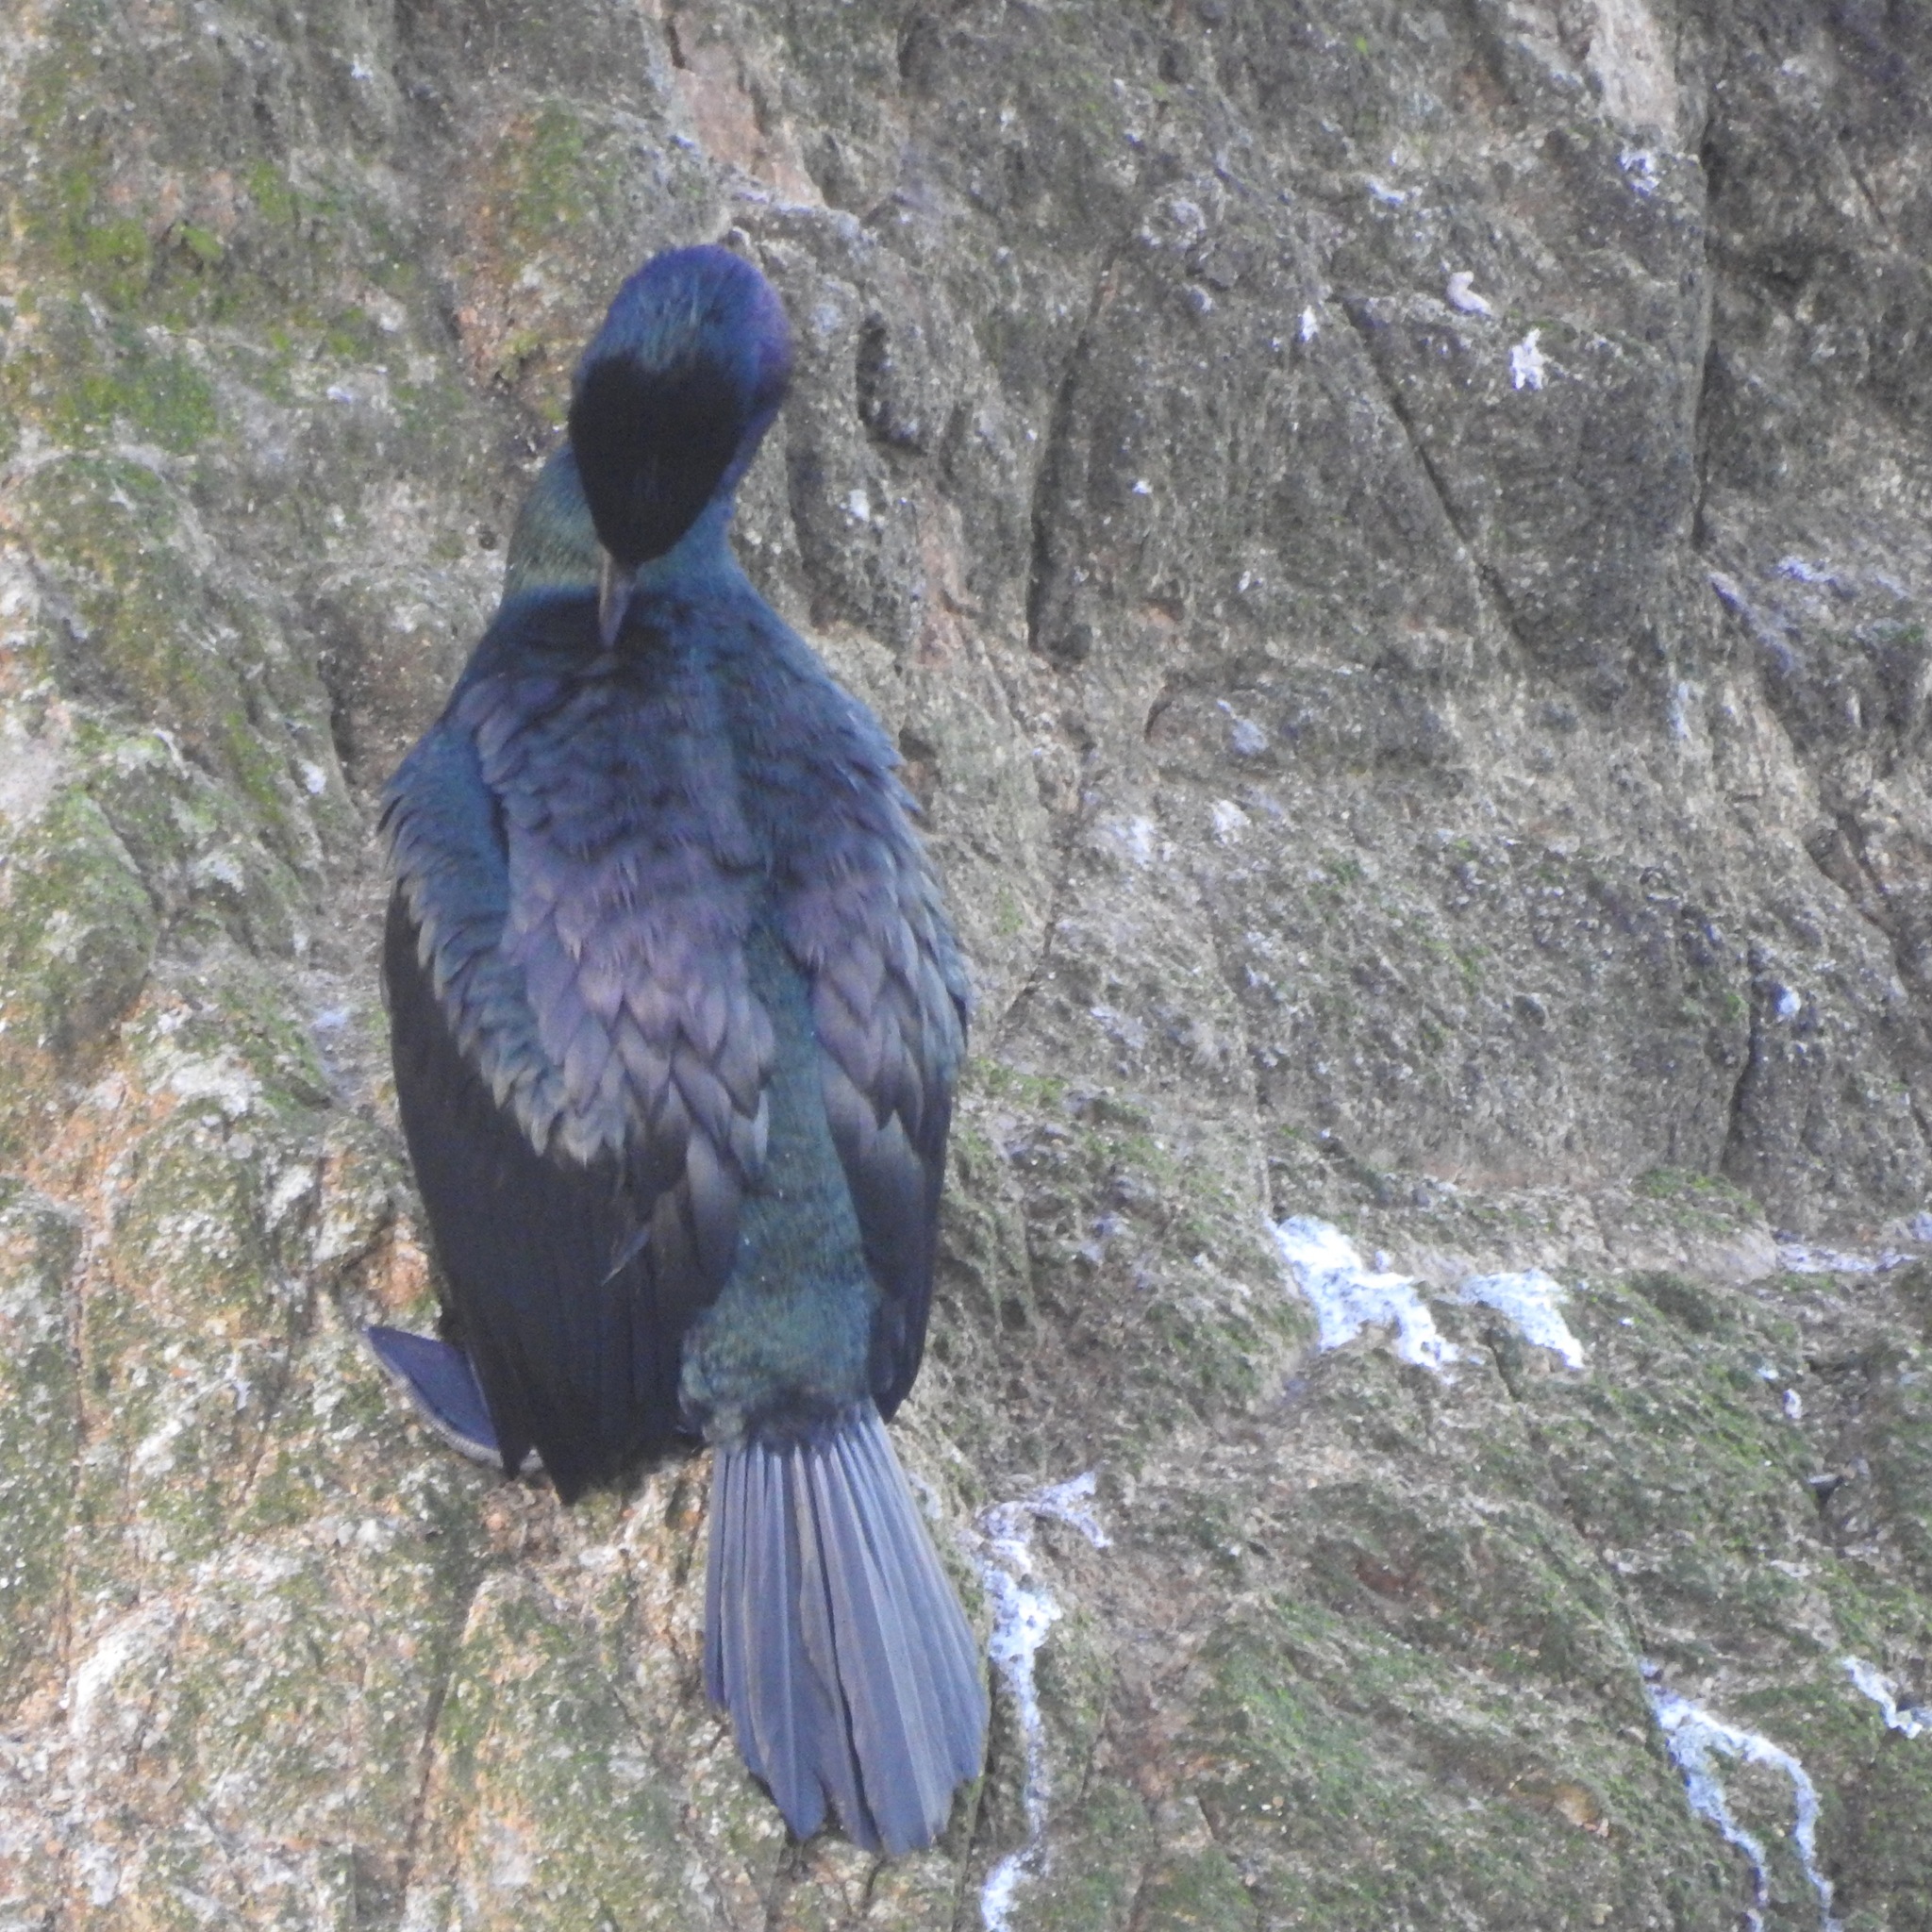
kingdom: Animalia
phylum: Chordata
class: Aves
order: Suliformes
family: Phalacrocoracidae
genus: Phalacrocorax
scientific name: Phalacrocorax pelagicus
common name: Pelagic cormorant
